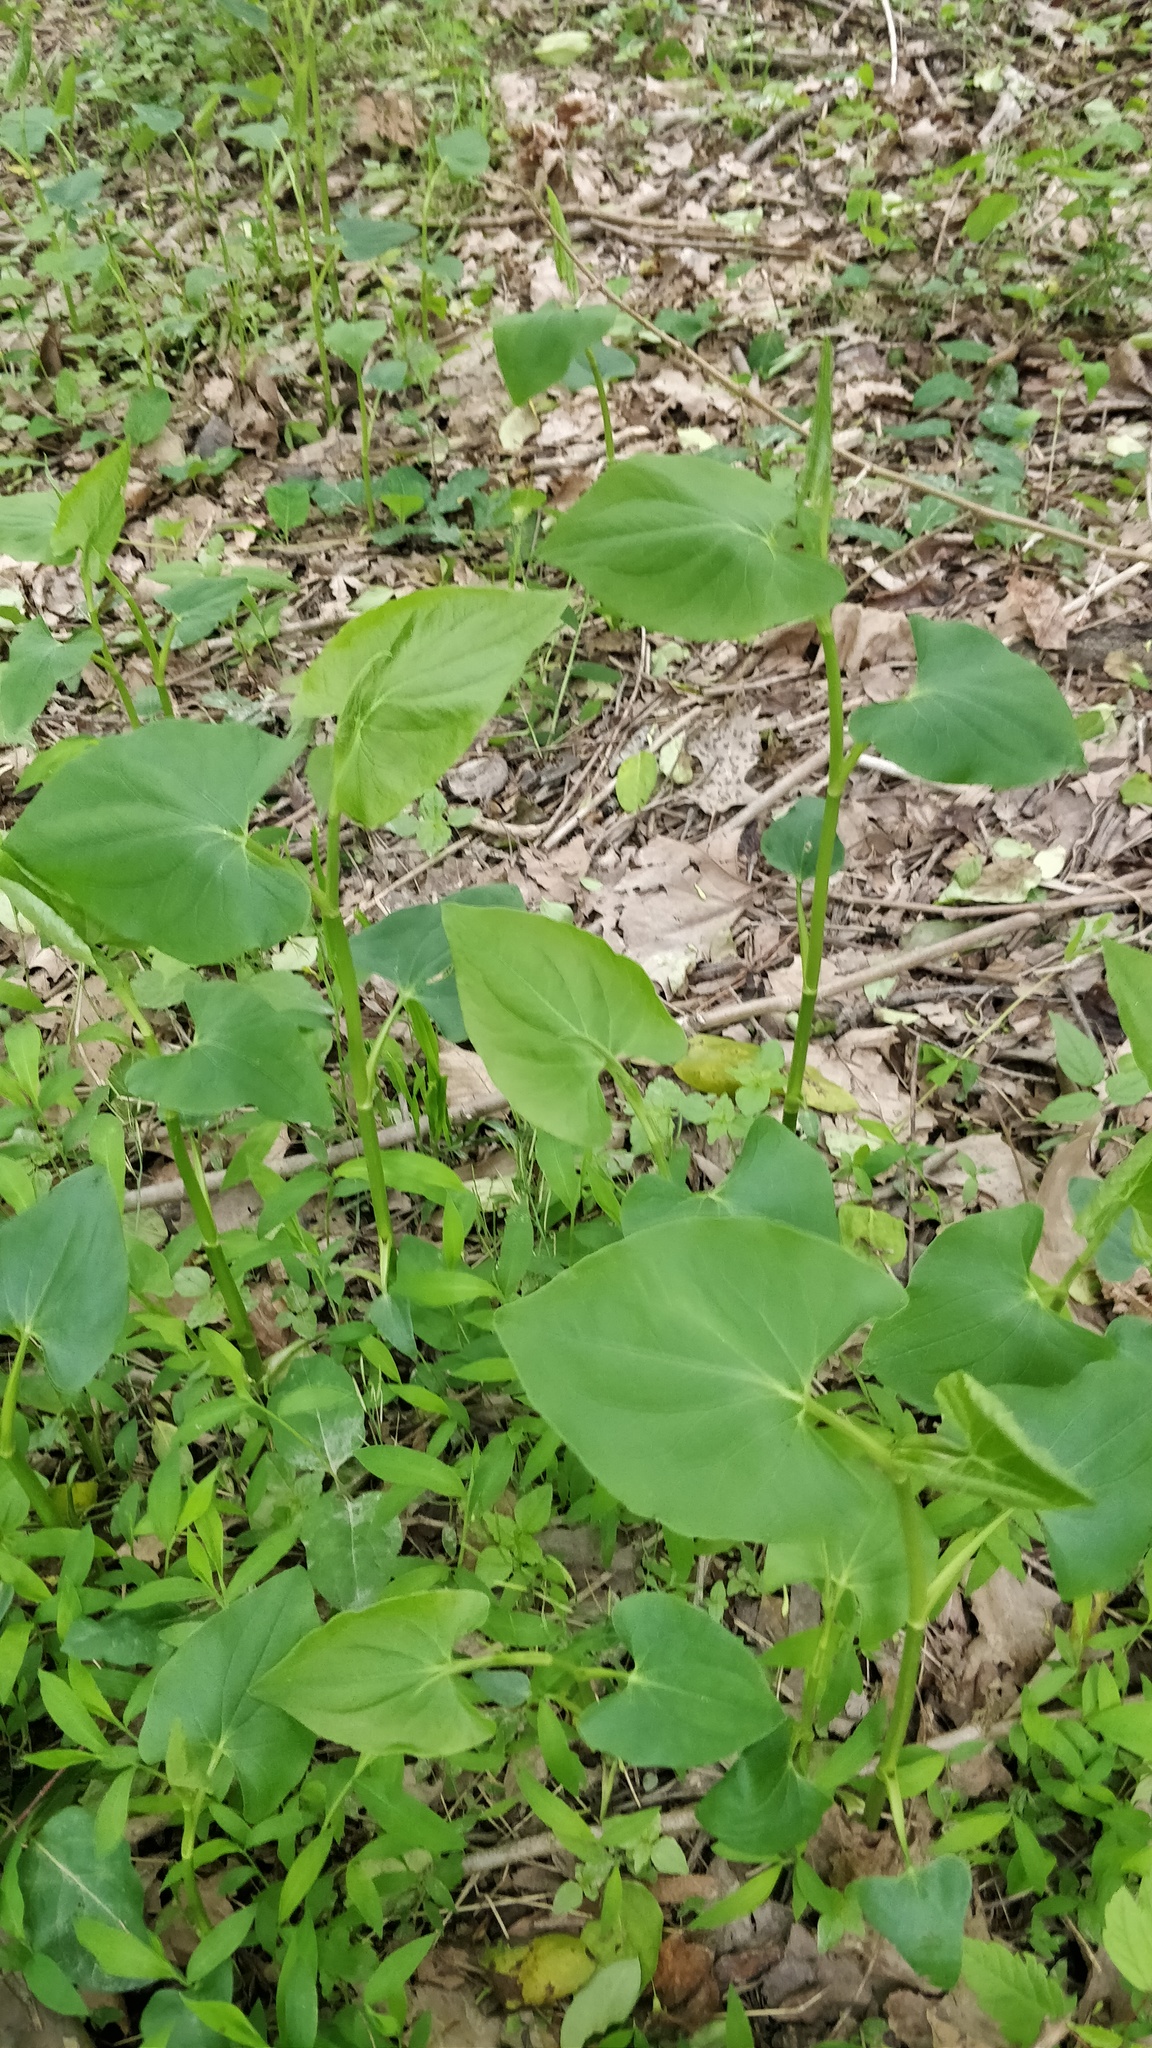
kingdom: Plantae
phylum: Tracheophyta
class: Magnoliopsida
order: Piperales
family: Saururaceae
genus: Saururus
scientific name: Saururus cernuus
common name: Lizard's-tail
